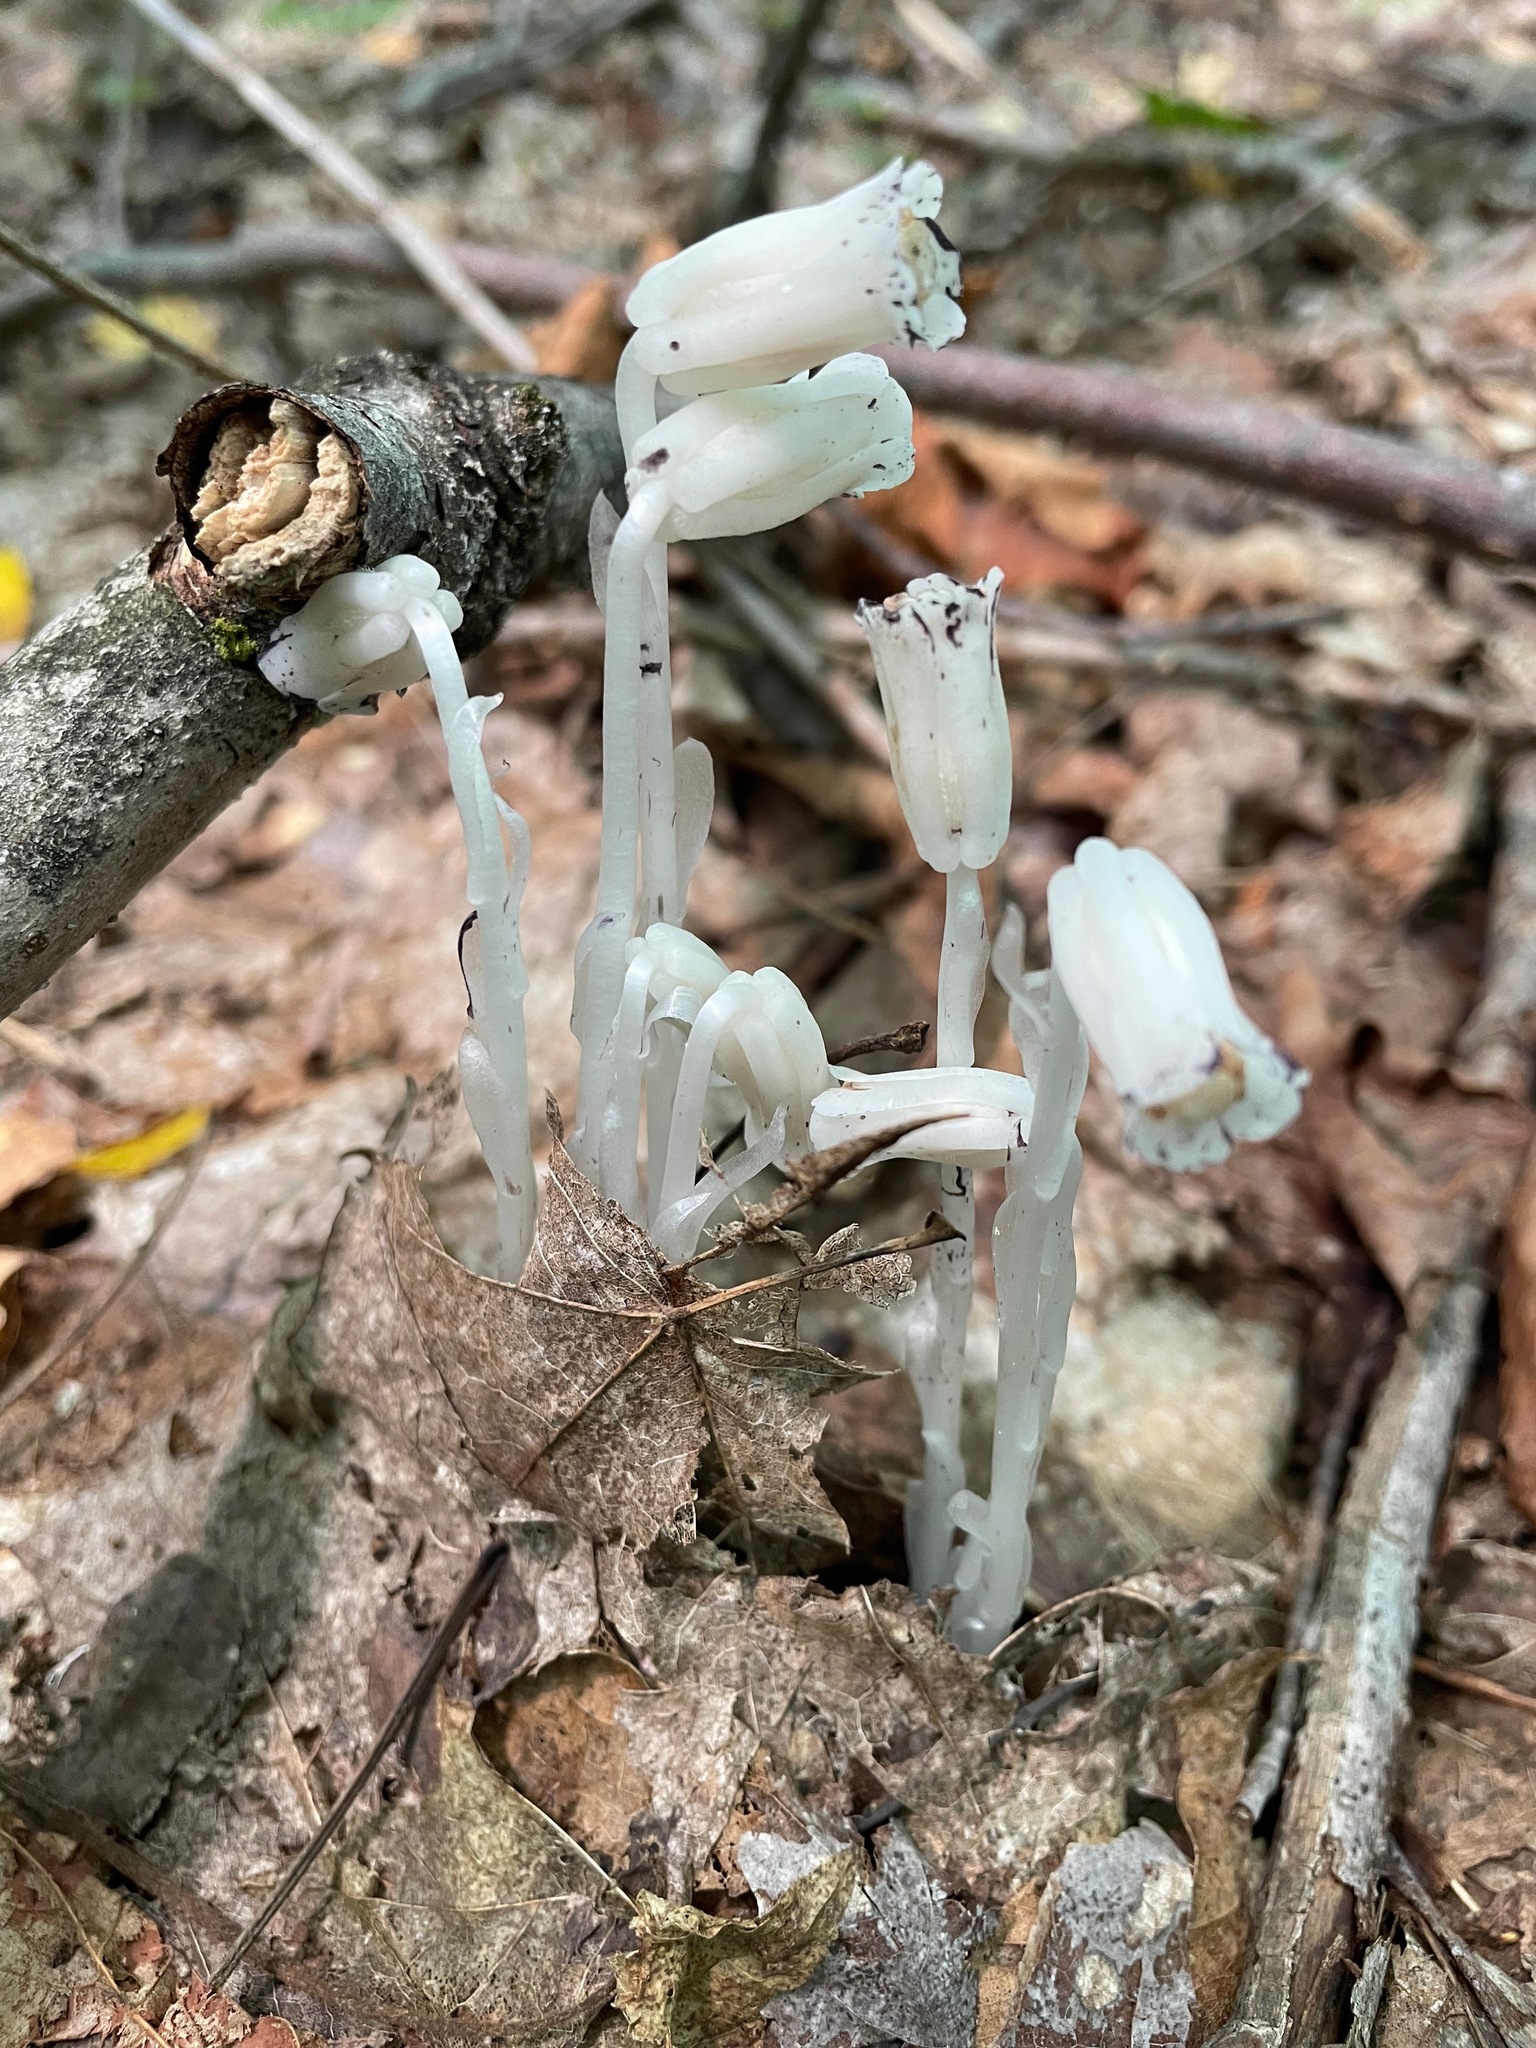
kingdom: Plantae
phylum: Tracheophyta
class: Magnoliopsida
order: Ericales
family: Ericaceae
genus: Monotropa
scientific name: Monotropa uniflora
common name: Convulsion root
